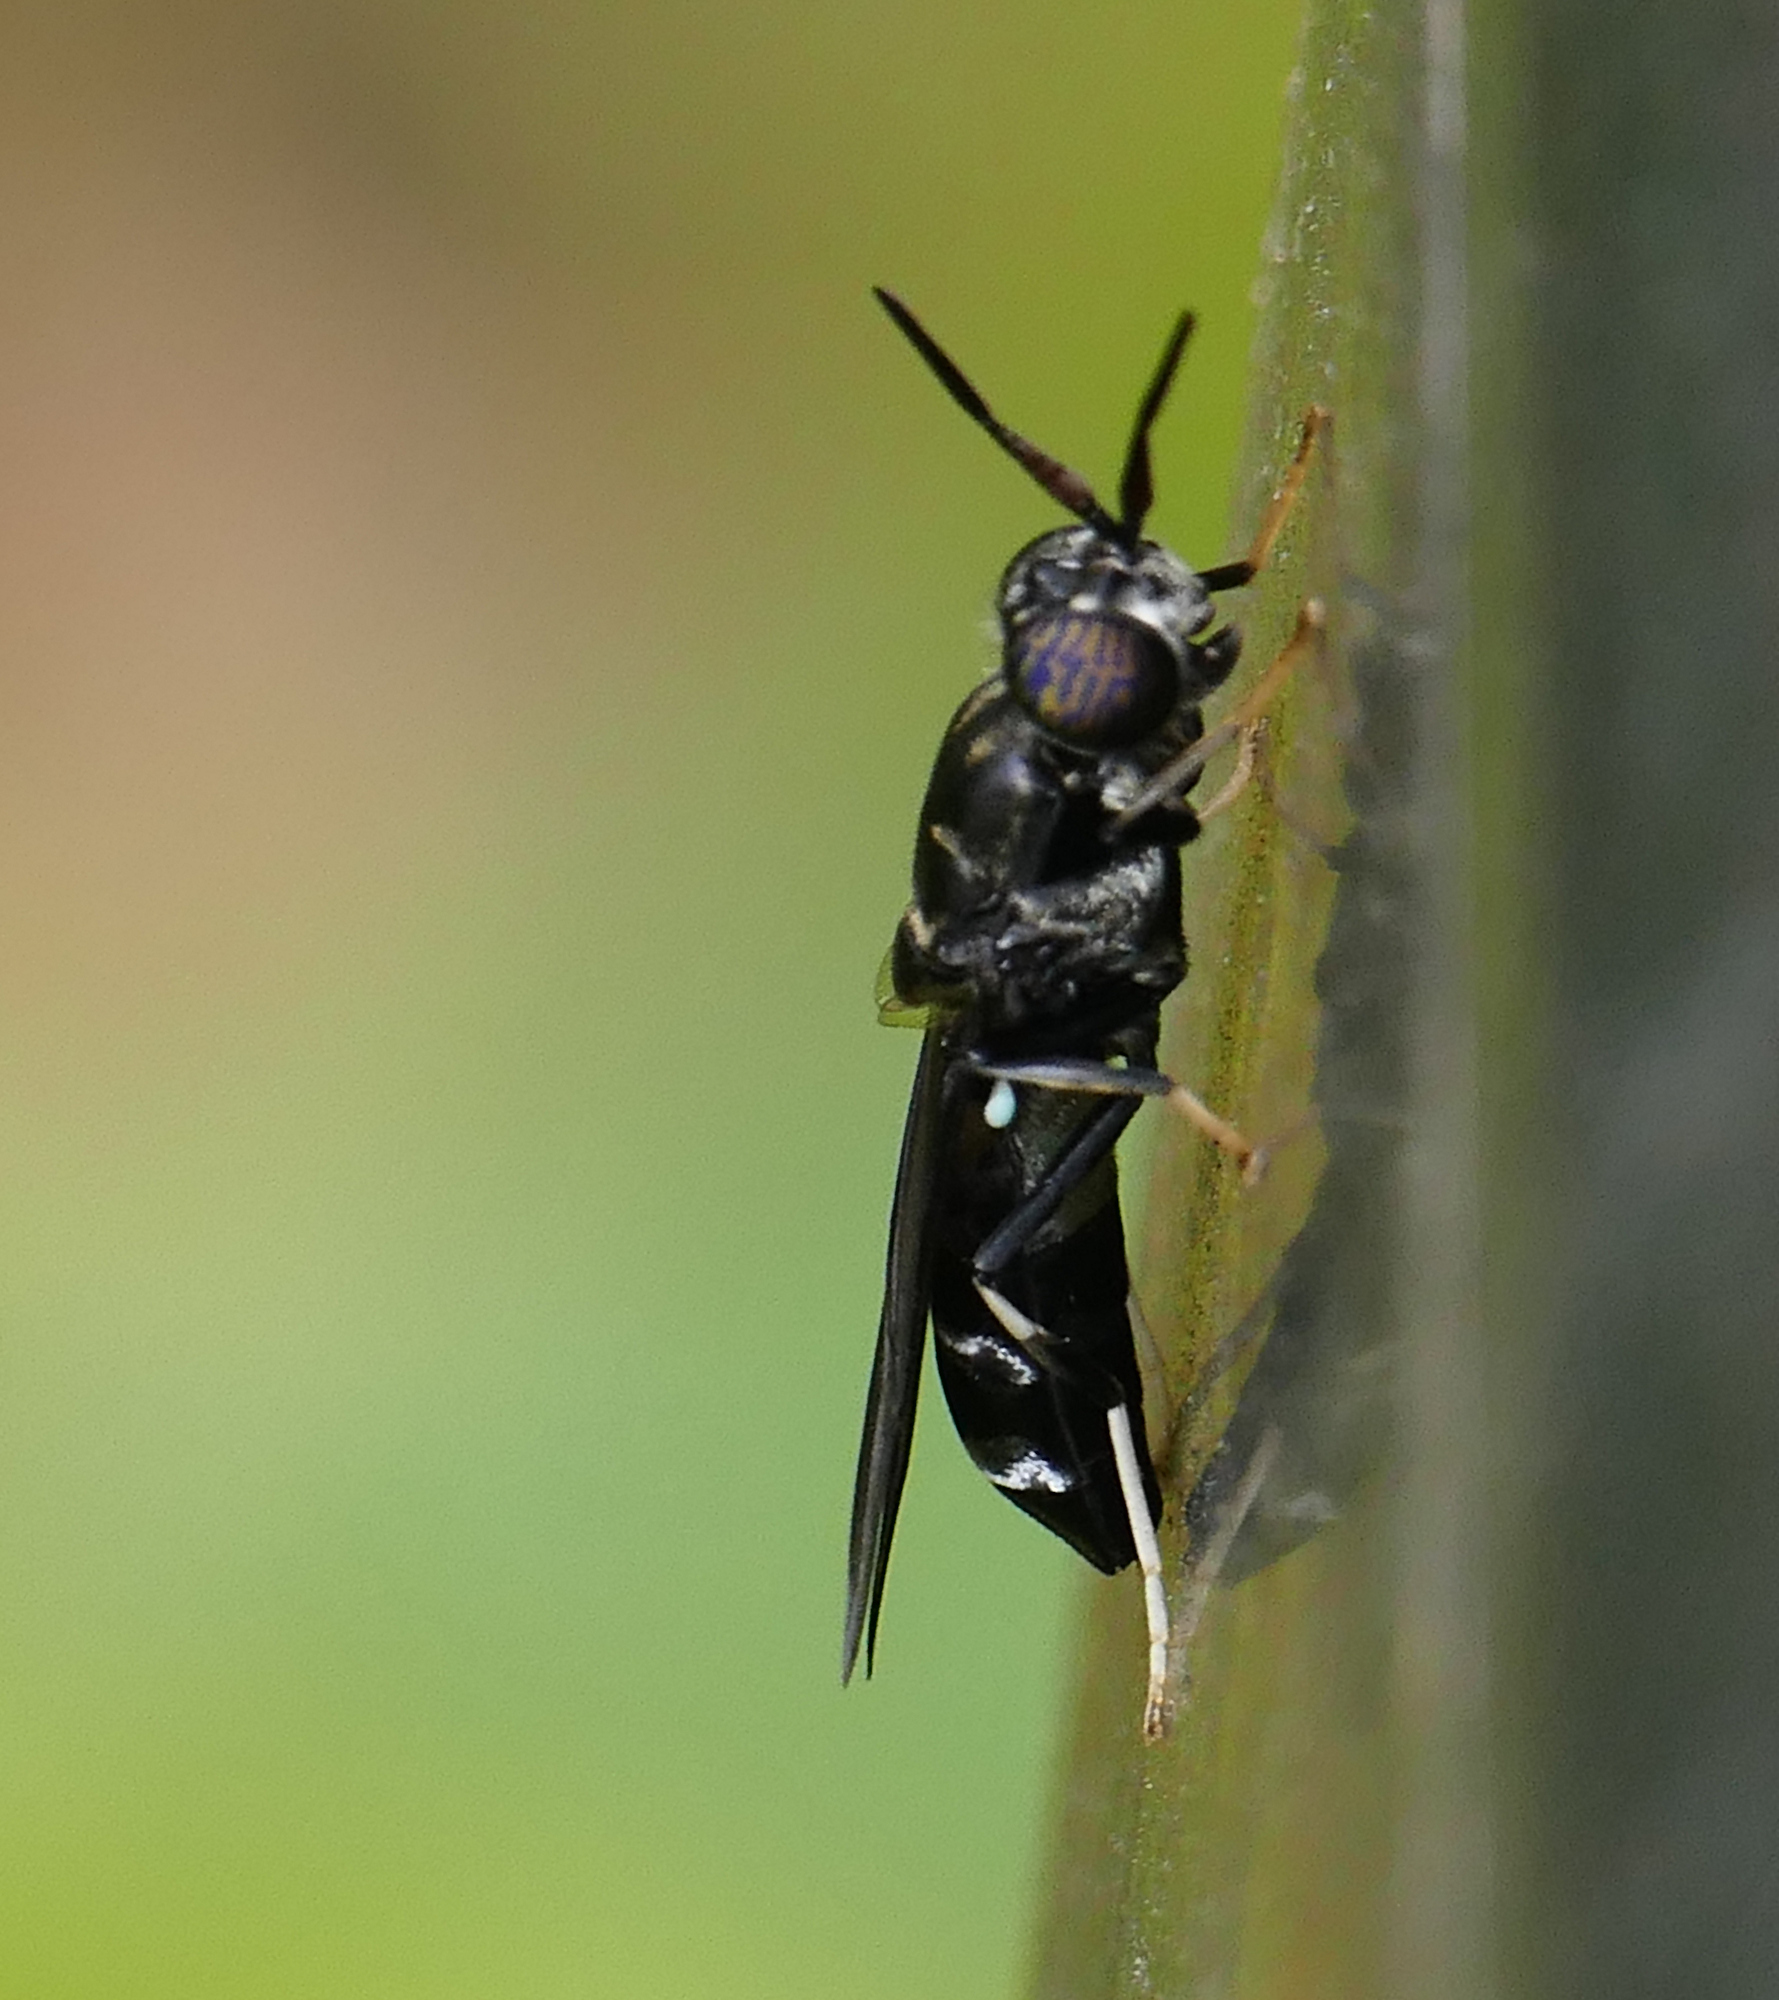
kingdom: Animalia
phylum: Arthropoda
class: Insecta
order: Diptera
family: Stratiomyidae
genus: Hermetia
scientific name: Hermetia illucens
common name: Black soldier fly
